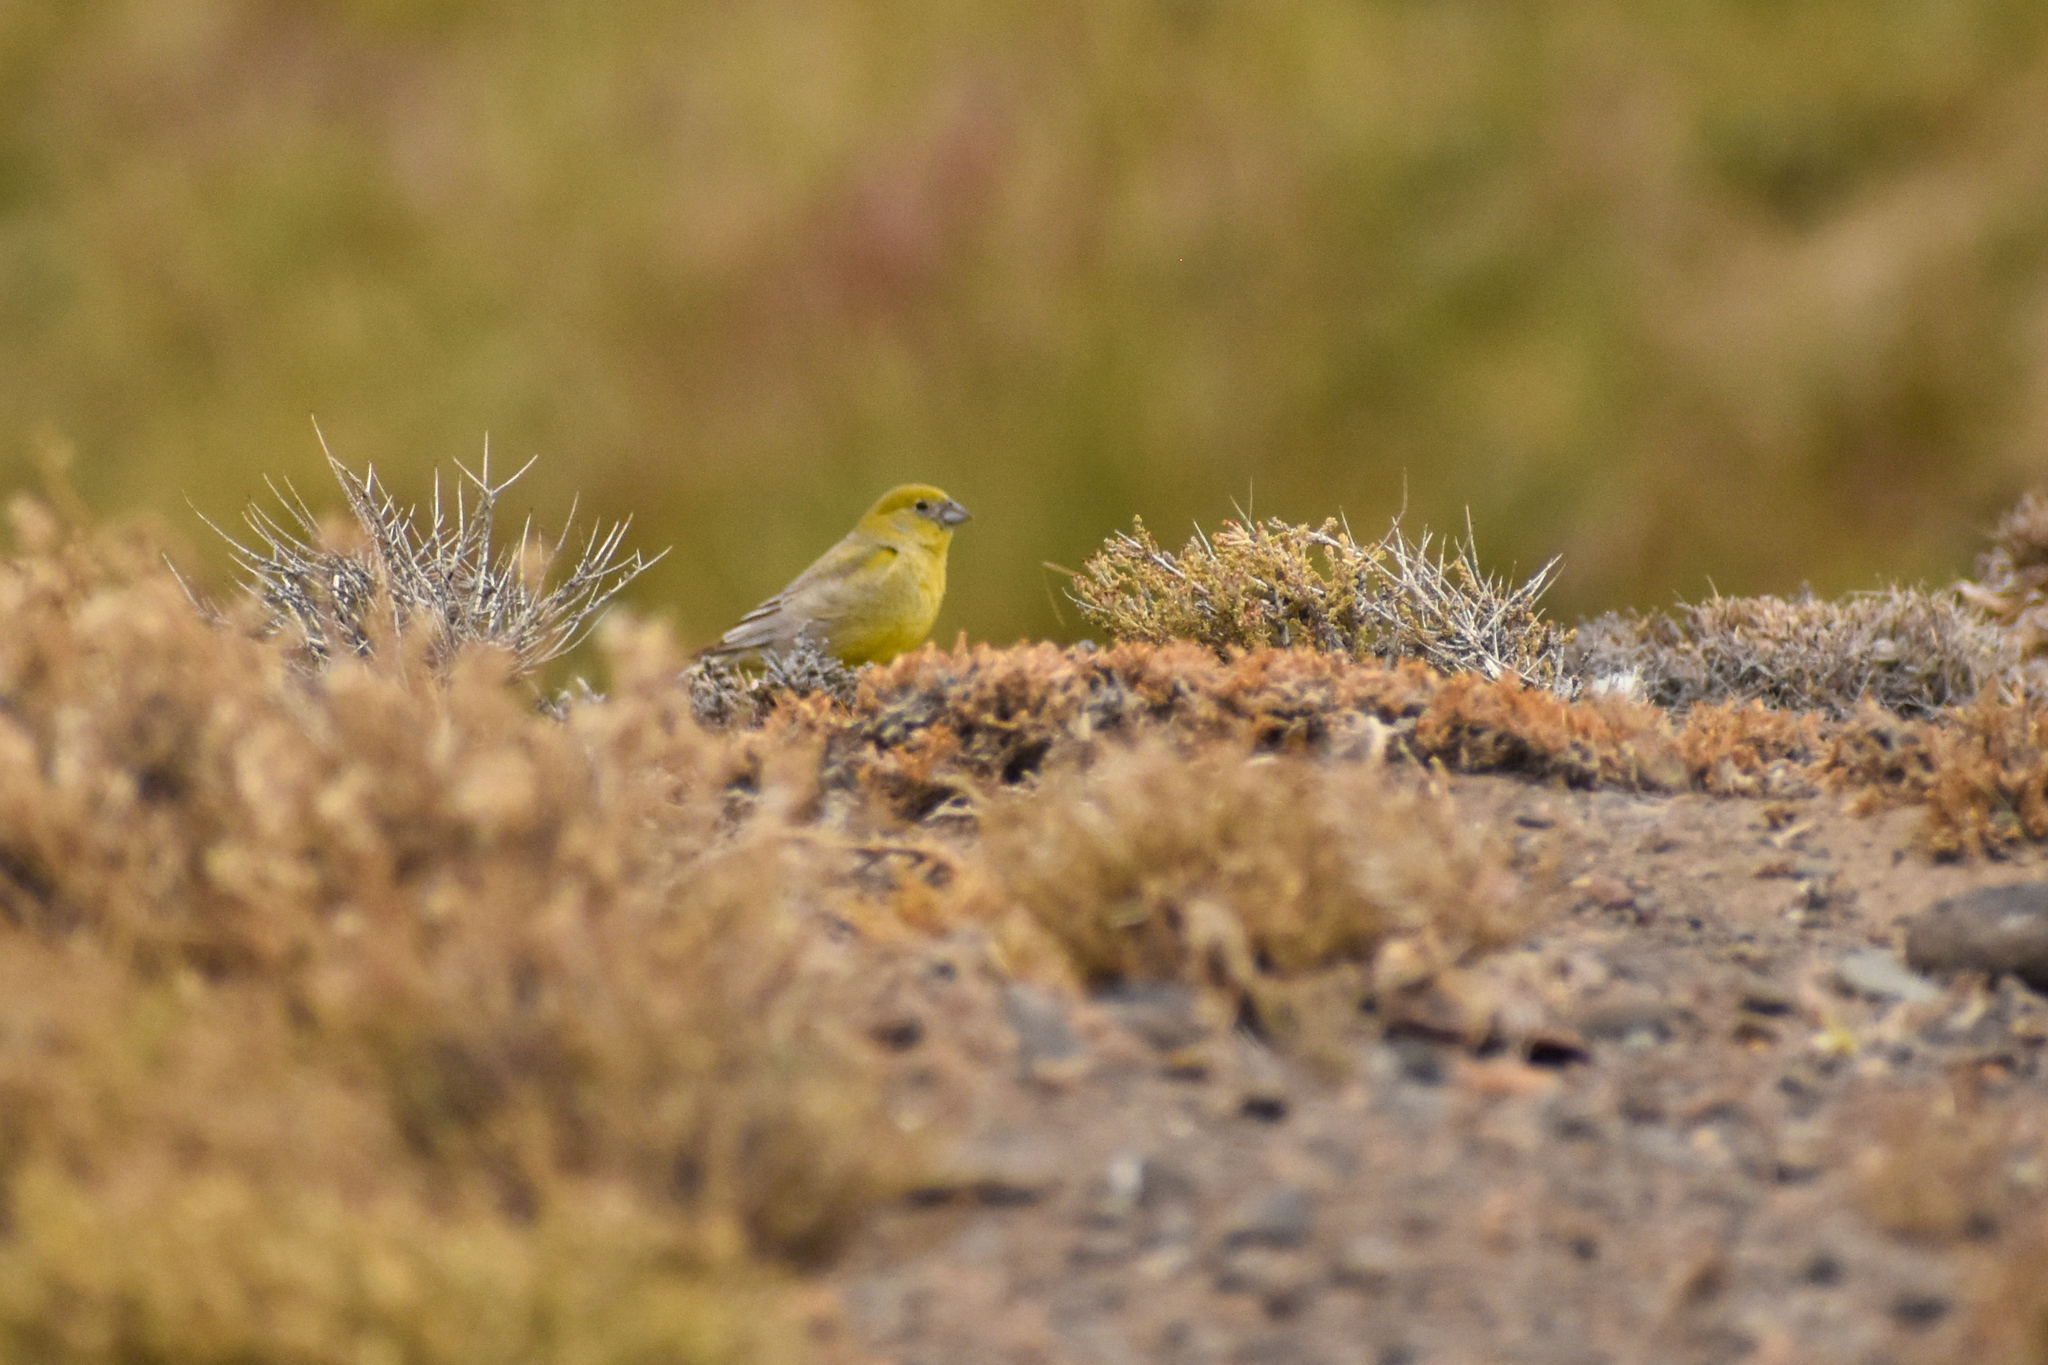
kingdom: Animalia
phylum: Chordata
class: Aves
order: Passeriformes
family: Thraupidae
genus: Sicalis
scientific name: Sicalis auriventris
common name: Greater yellow finch
